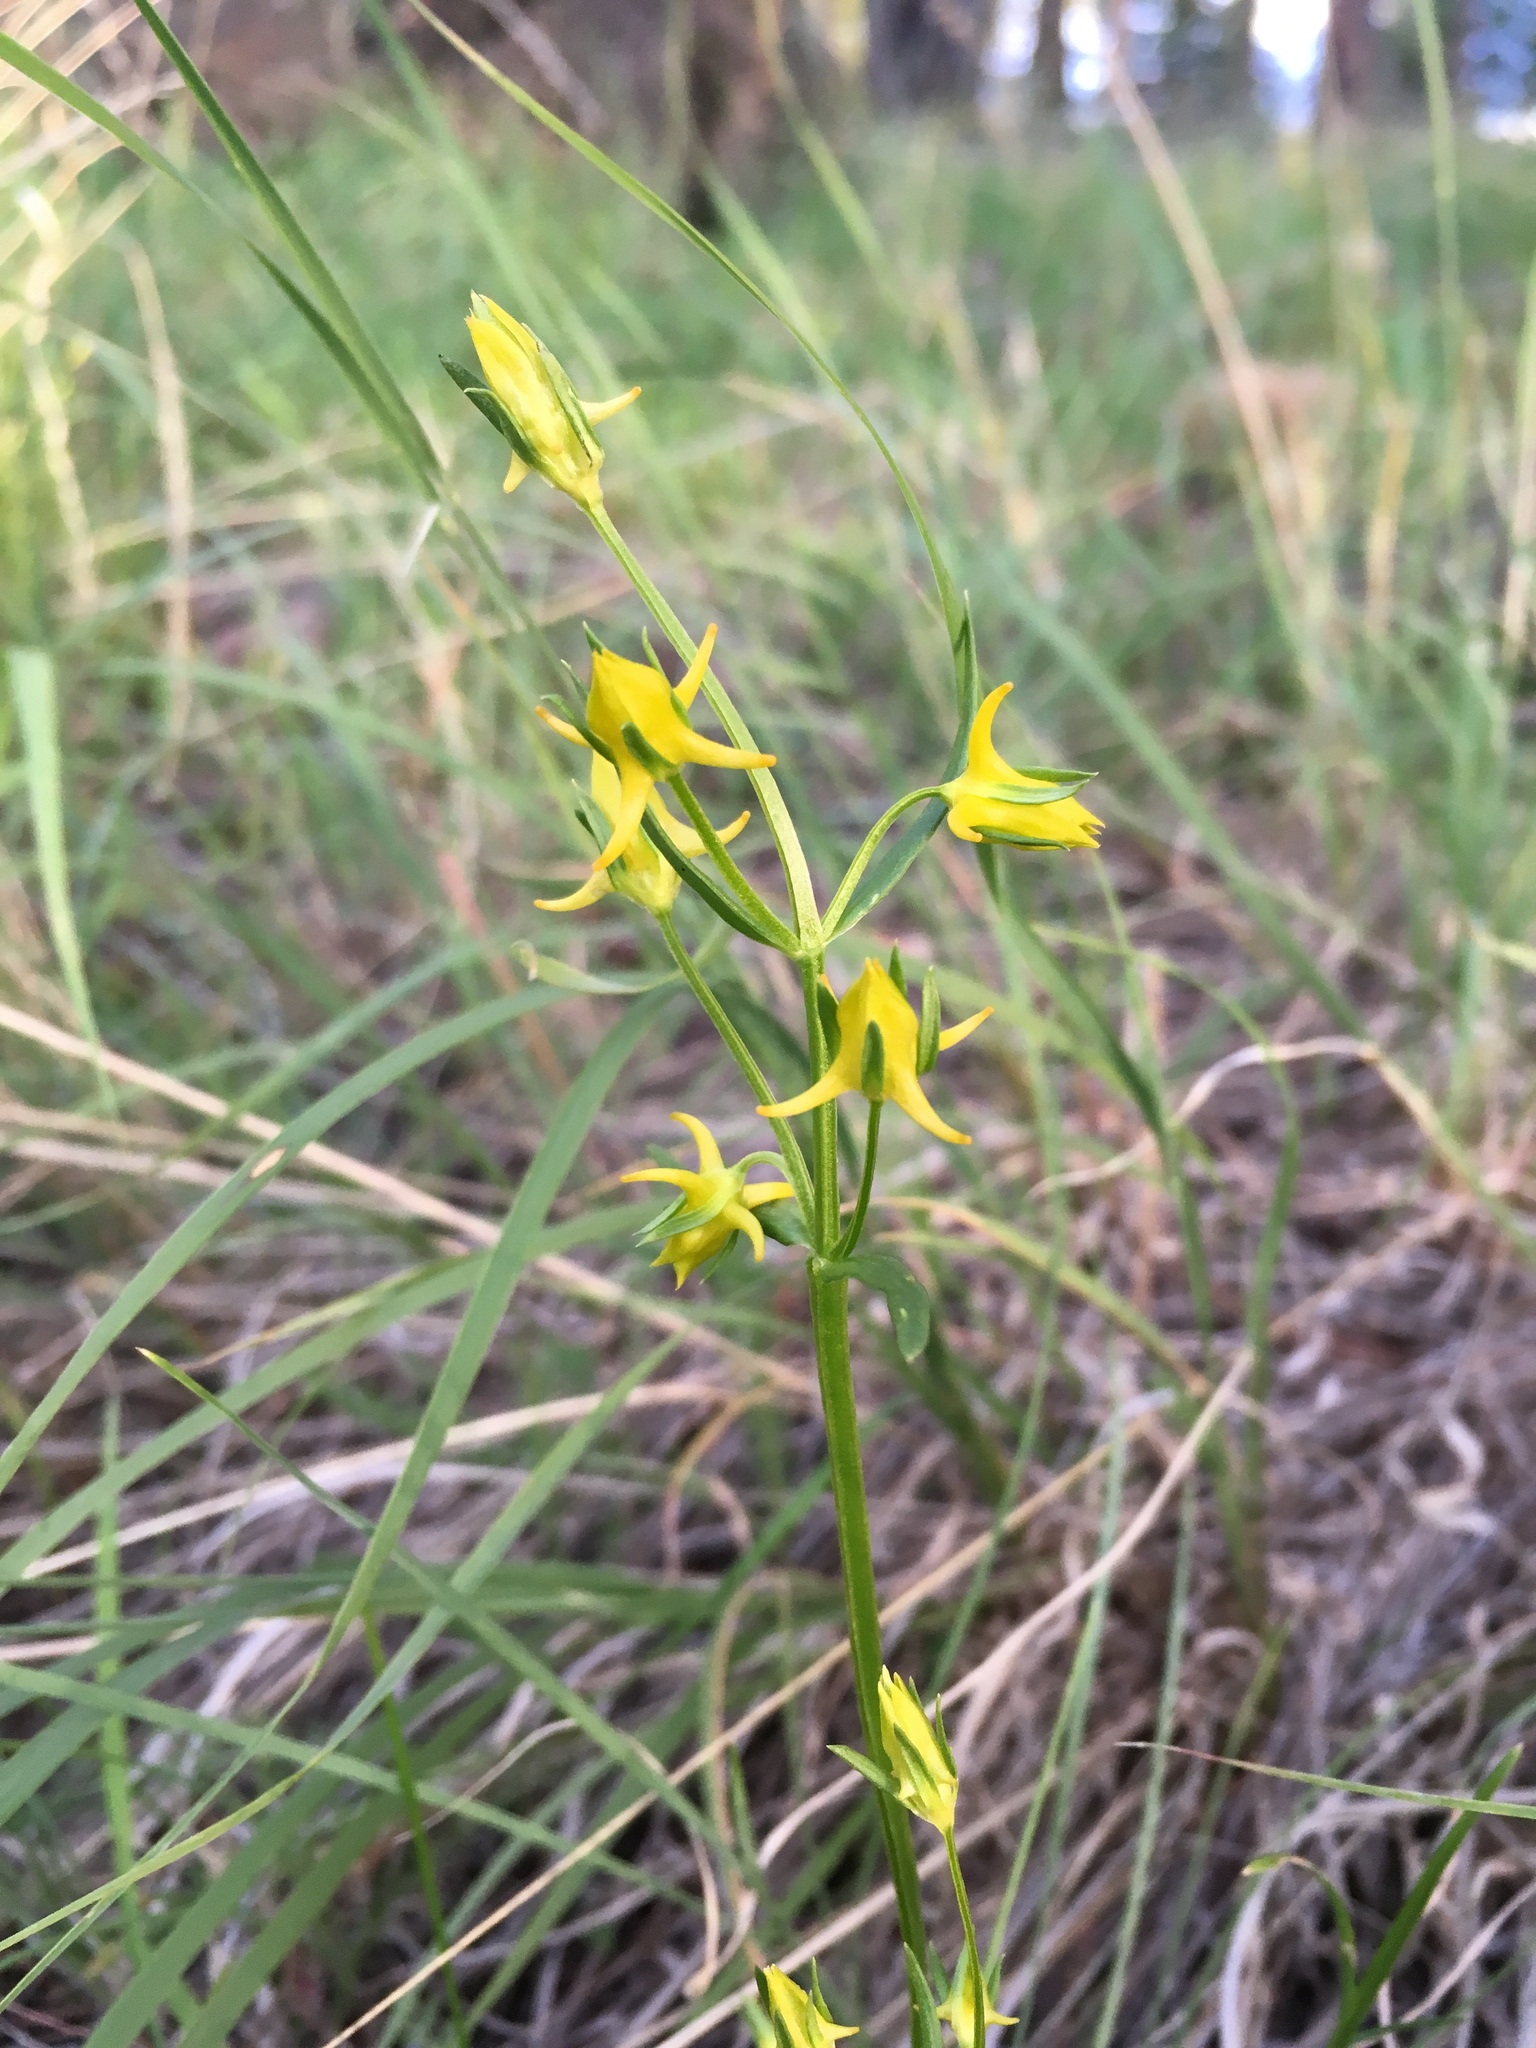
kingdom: Plantae
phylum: Tracheophyta
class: Magnoliopsida
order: Gentianales
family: Gentianaceae
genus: Halenia
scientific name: Halenia recurva
